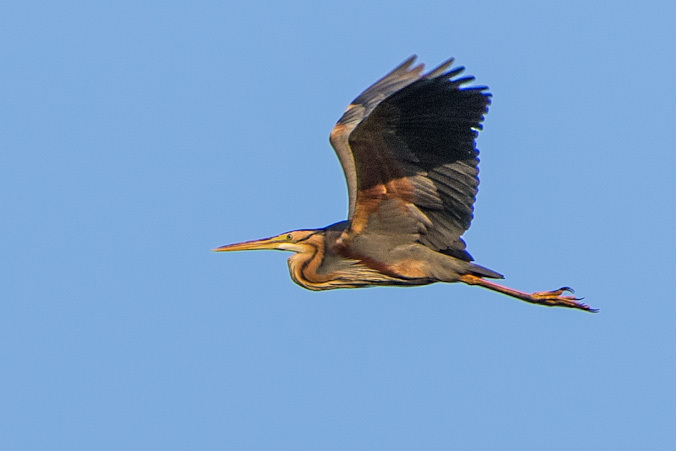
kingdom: Animalia
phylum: Chordata
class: Aves
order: Pelecaniformes
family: Ardeidae
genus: Ardea
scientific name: Ardea purpurea
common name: Purple heron
